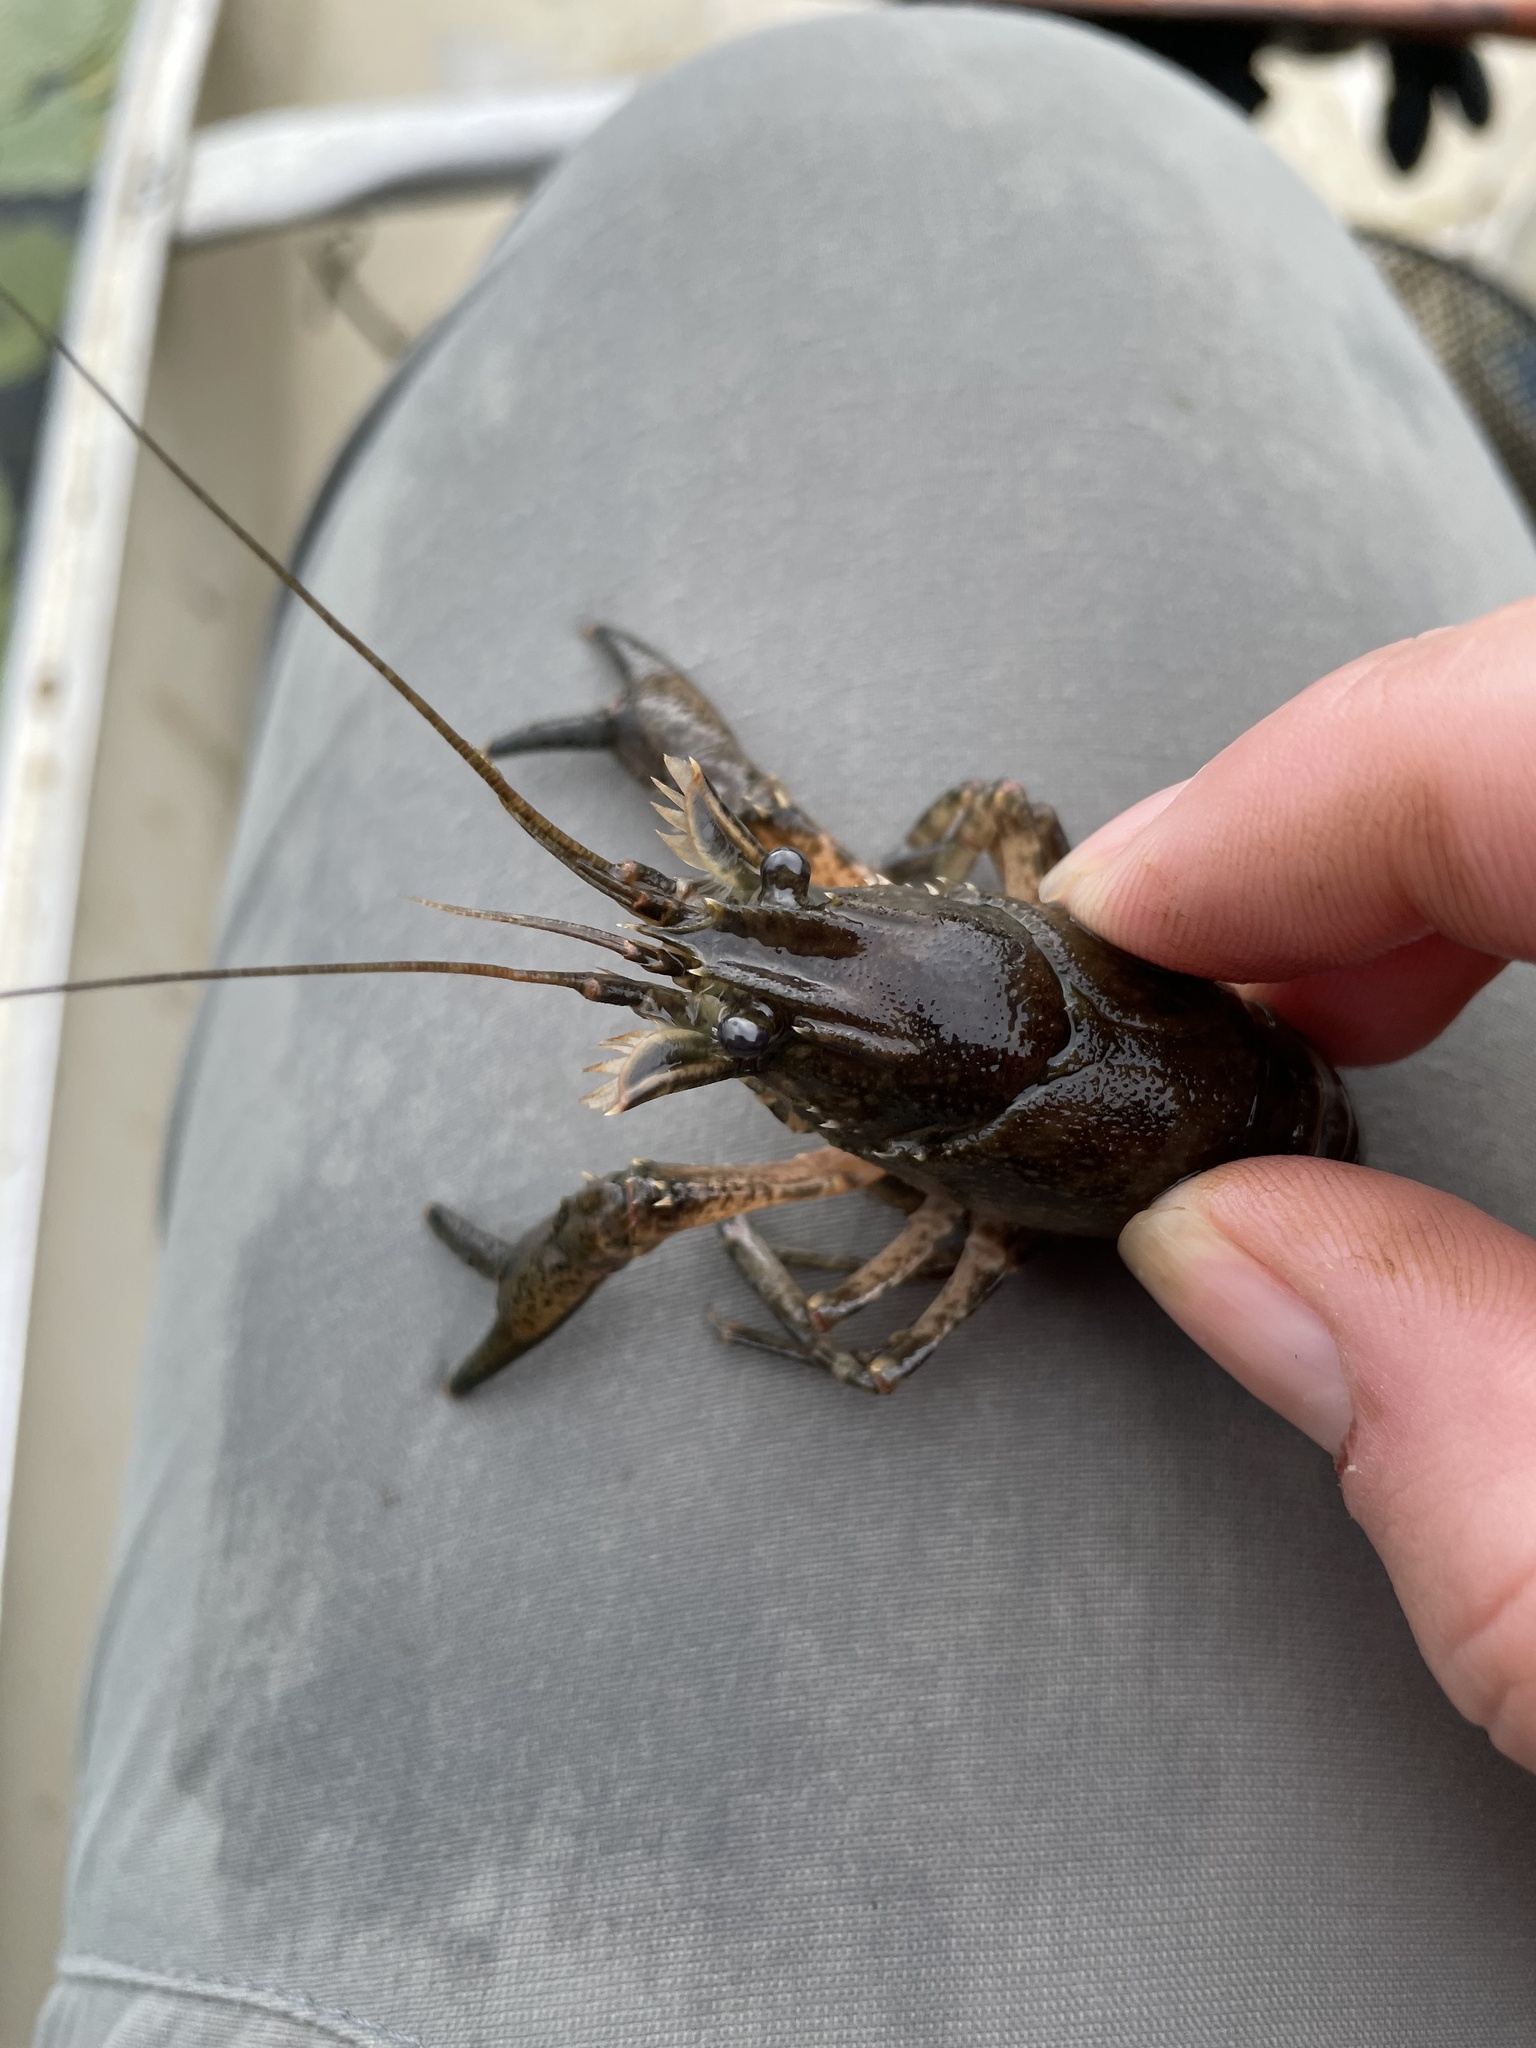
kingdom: Animalia
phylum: Arthropoda
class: Malacostraca
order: Decapoda
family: Cambaridae
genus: Faxonius
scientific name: Faxonius limosus
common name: American crayfish
